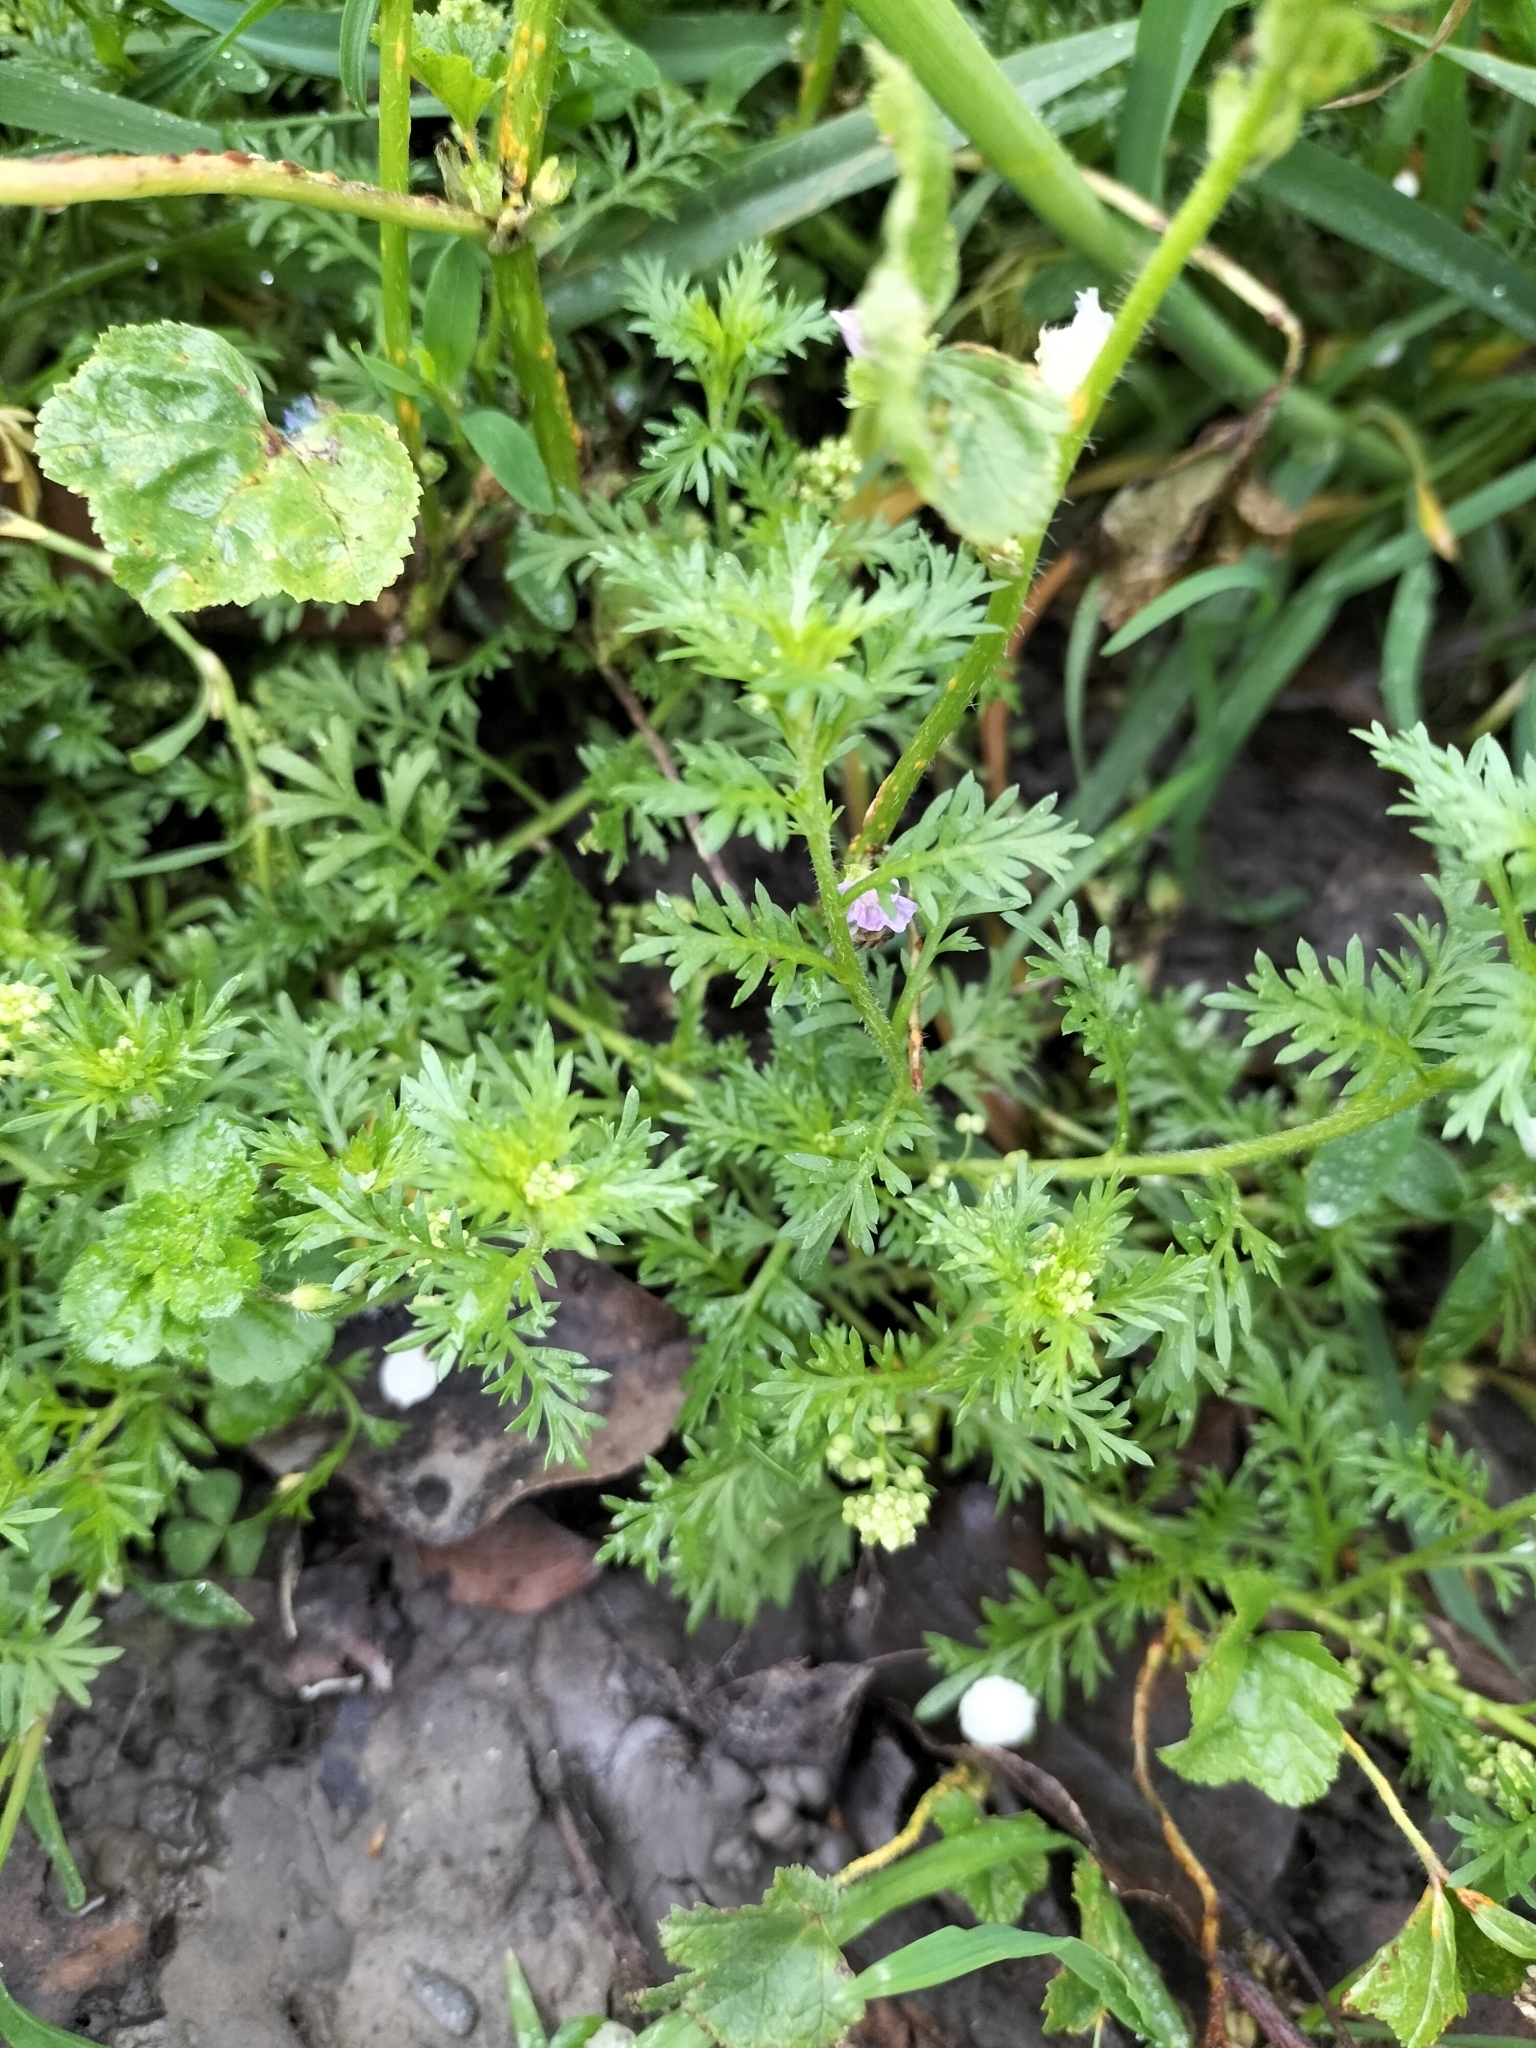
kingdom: Plantae
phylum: Tracheophyta
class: Magnoliopsida
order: Brassicales
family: Brassicaceae
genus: Lepidium
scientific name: Lepidium didymum
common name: Lesser swinecress
